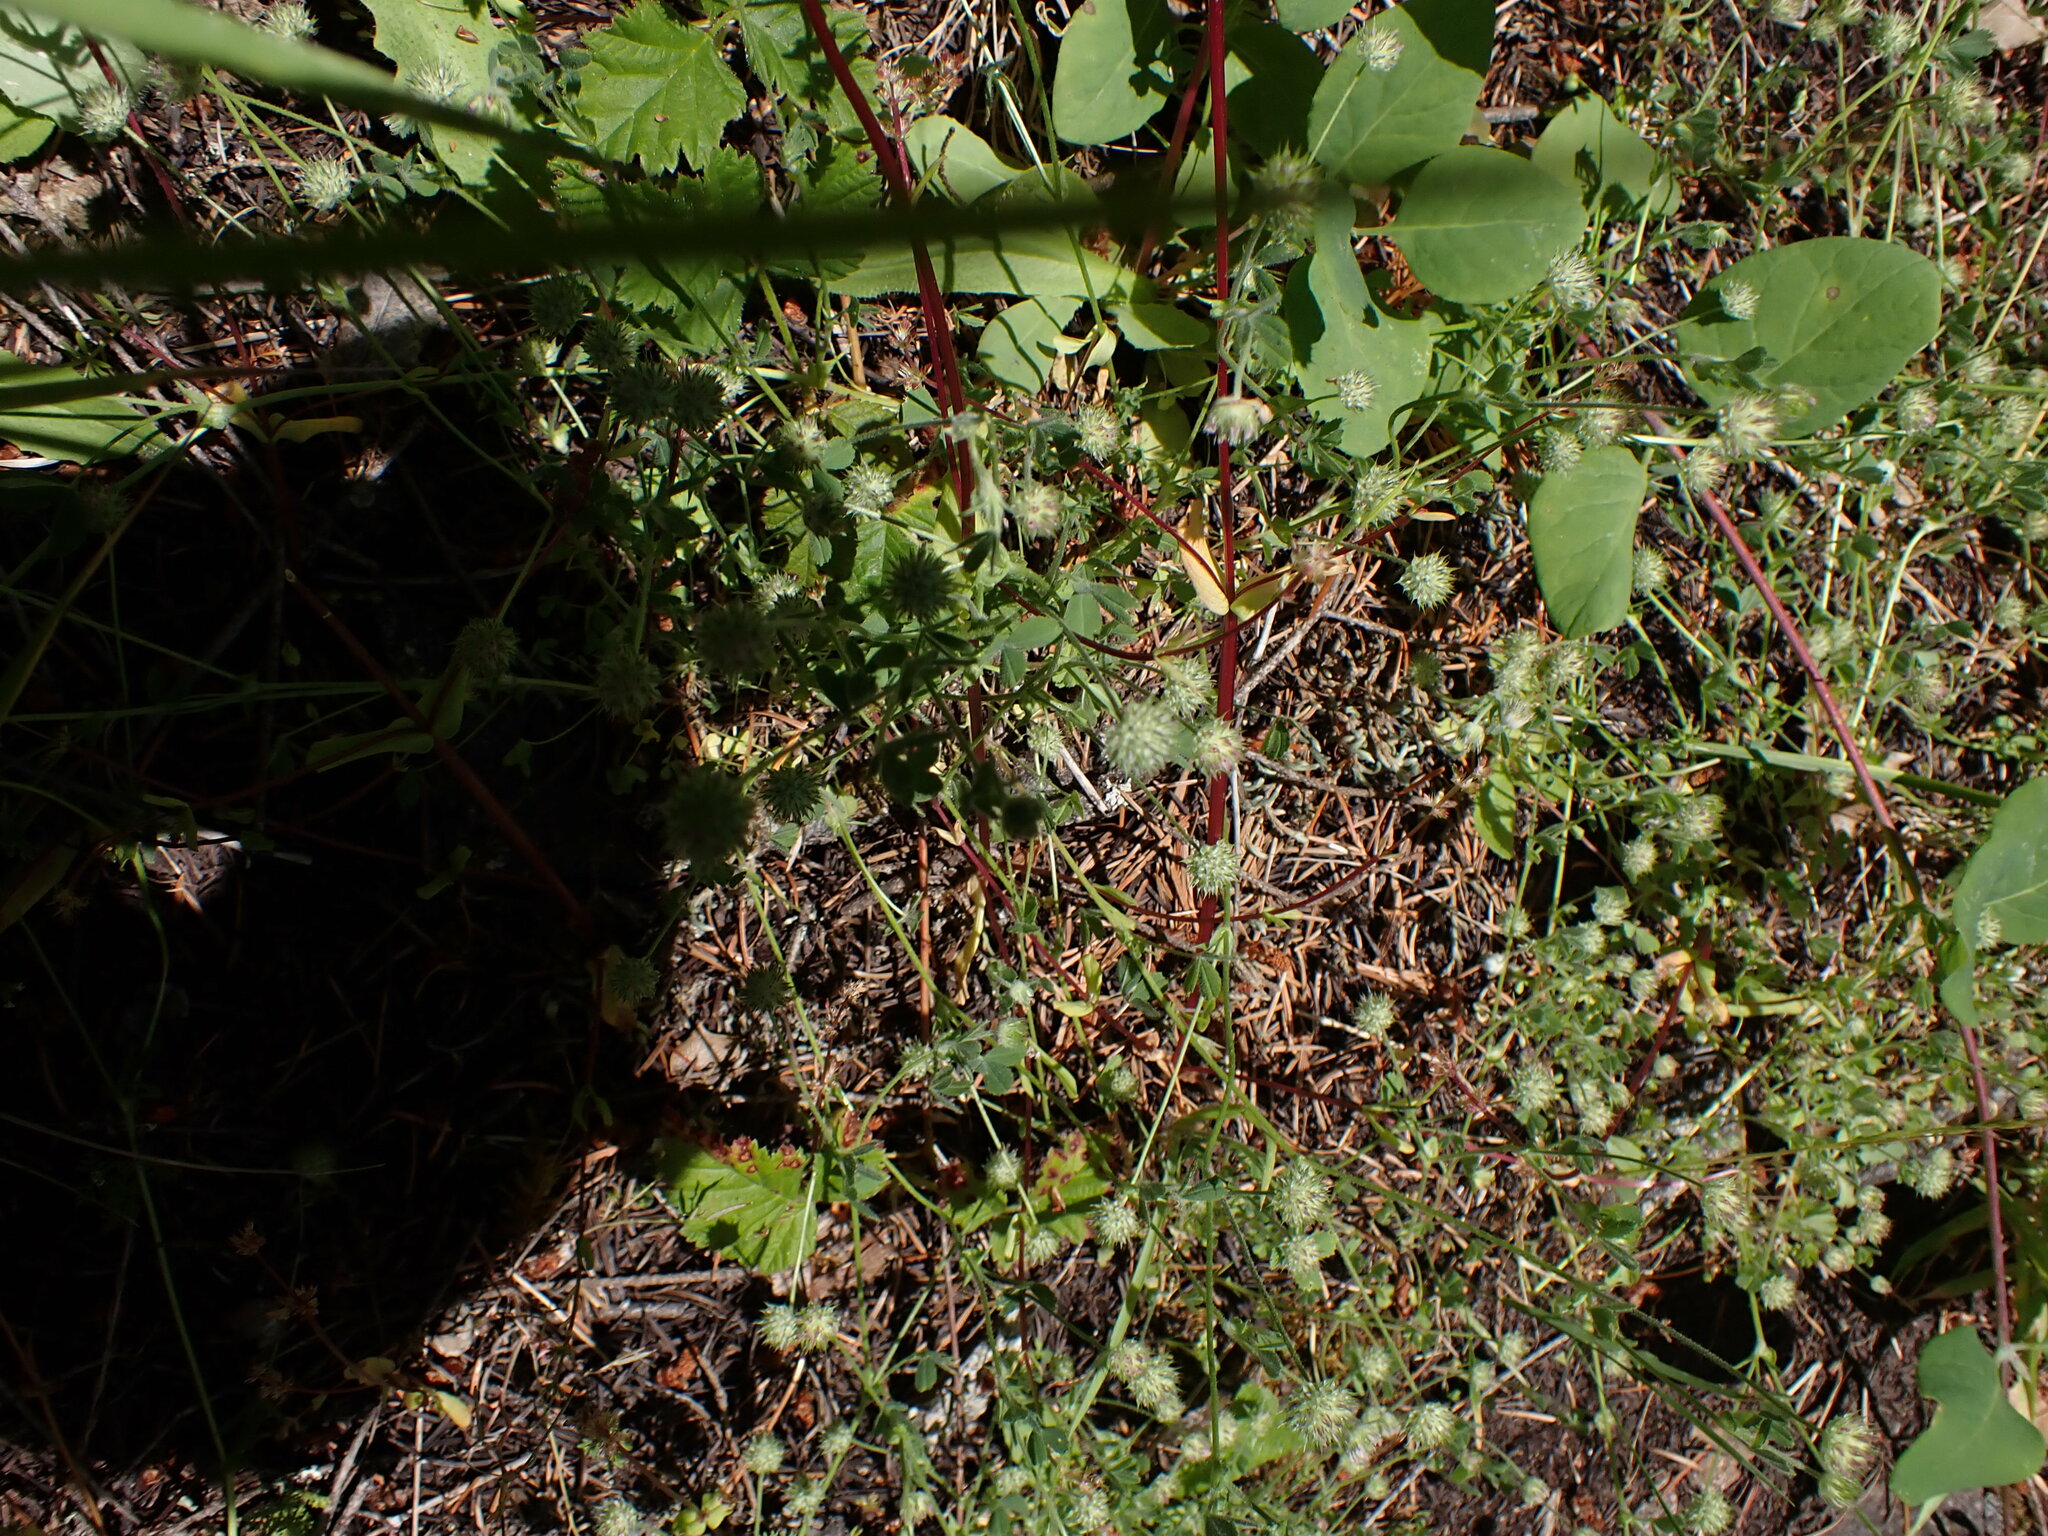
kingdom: Plantae
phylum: Tracheophyta
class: Magnoliopsida
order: Fabales
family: Fabaceae
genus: Trifolium
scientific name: Trifolium microcephalum
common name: Maiden clover
